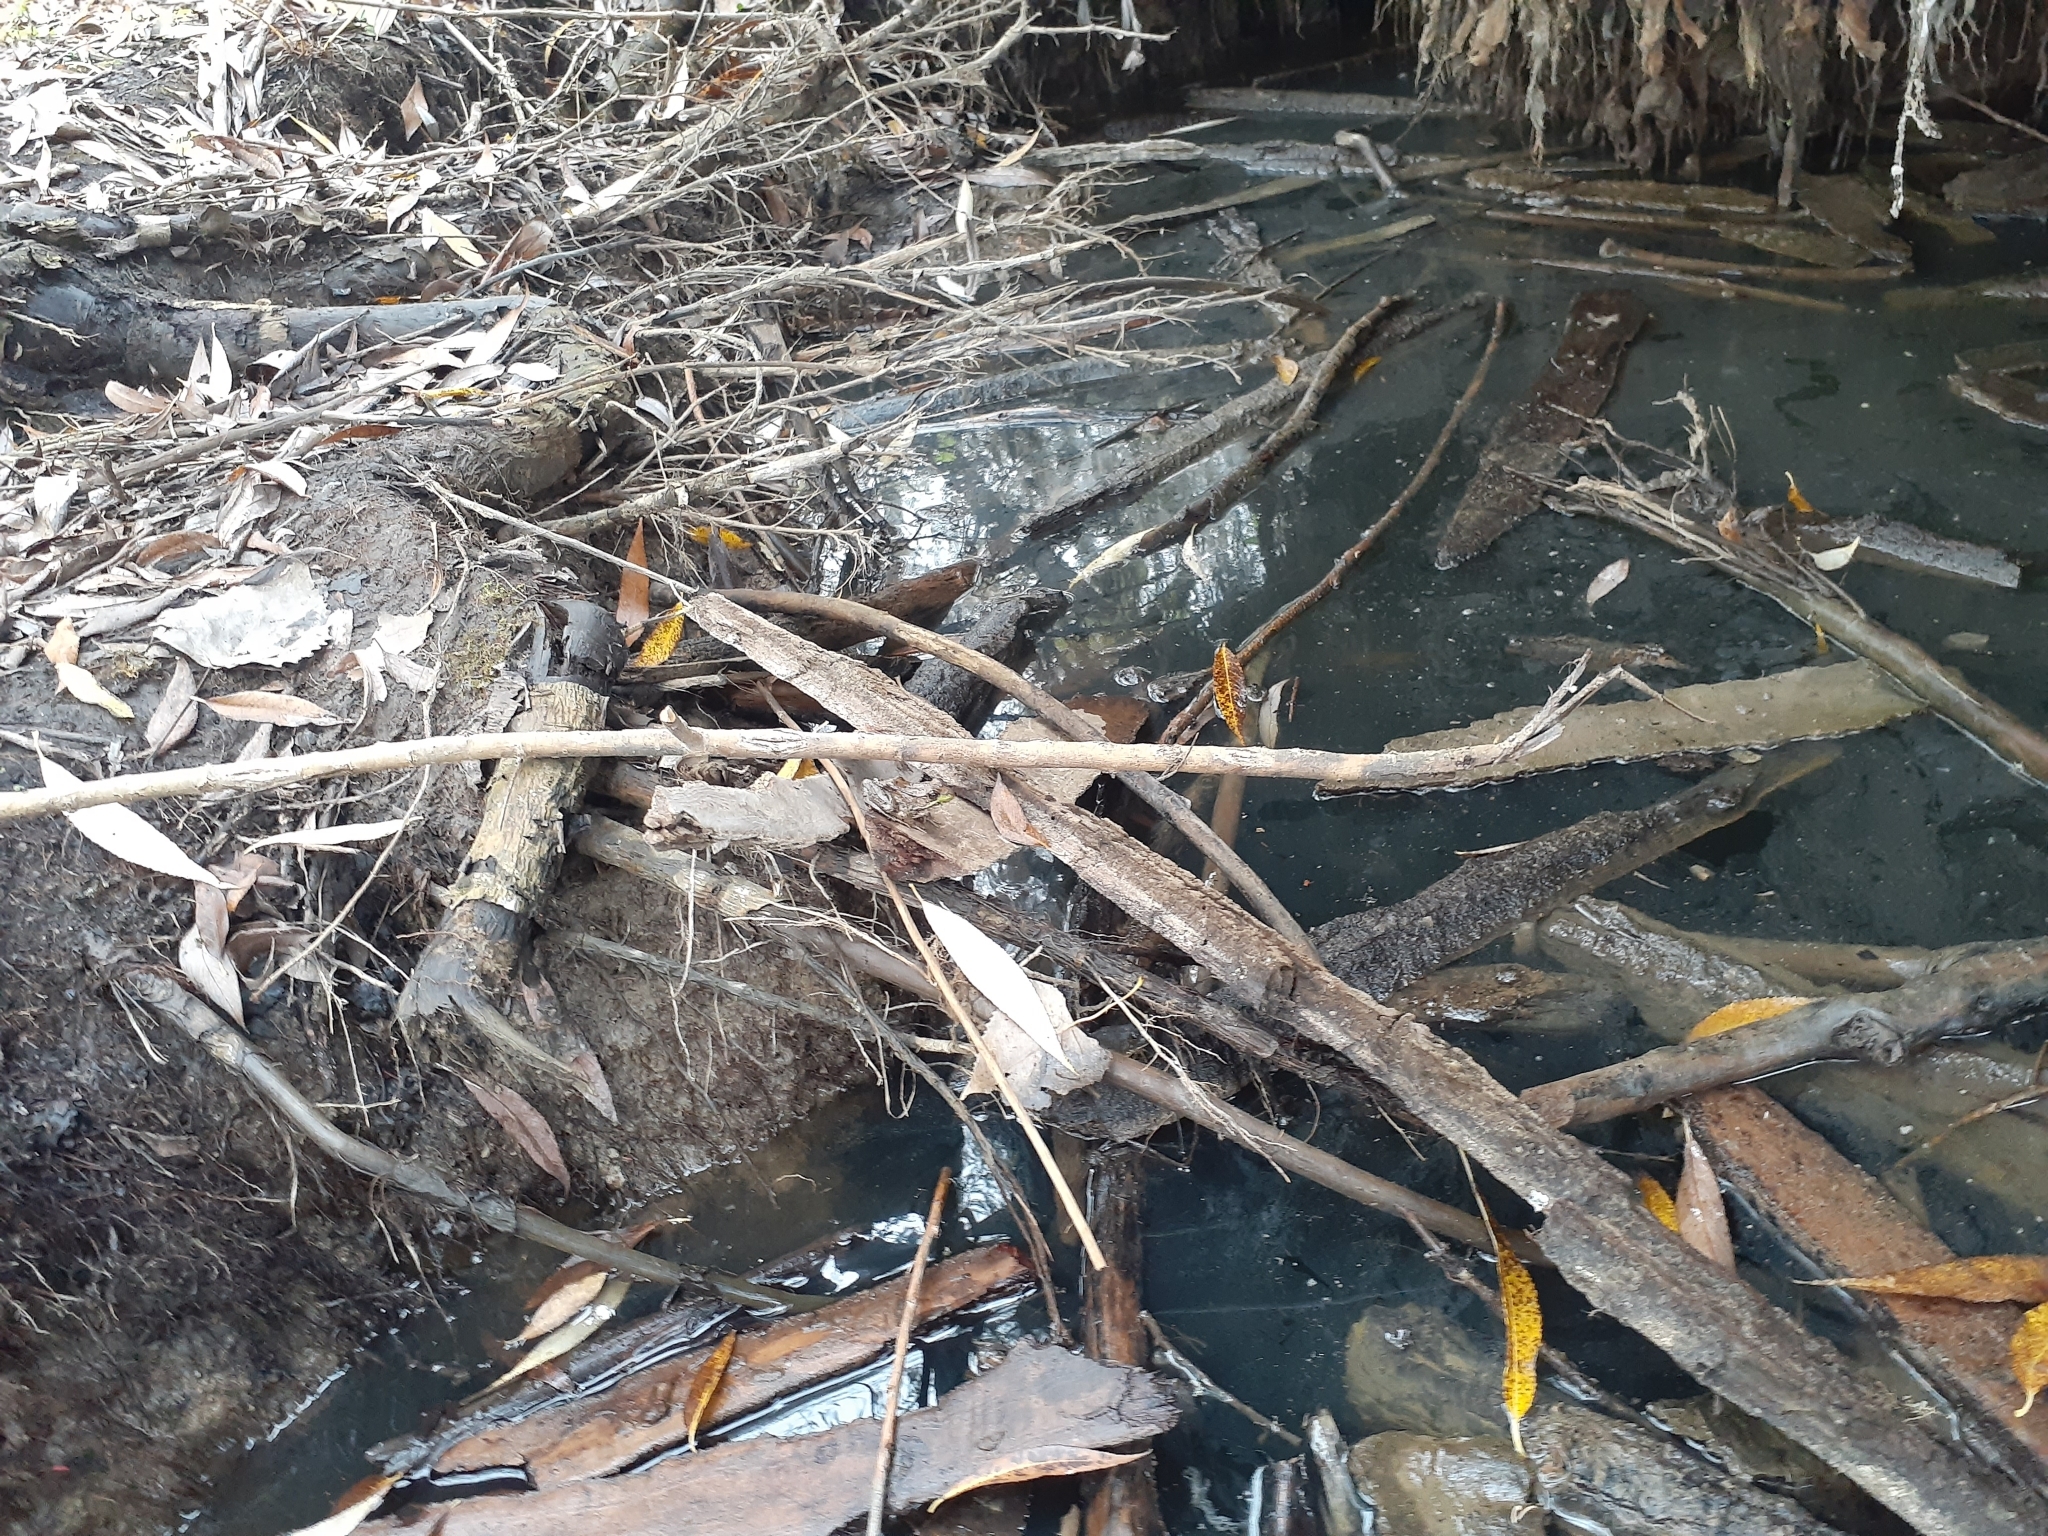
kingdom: Animalia
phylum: Chordata
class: Amphibia
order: Anura
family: Ranidae
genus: Lithobates
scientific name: Lithobates clamitans
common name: Green frog
